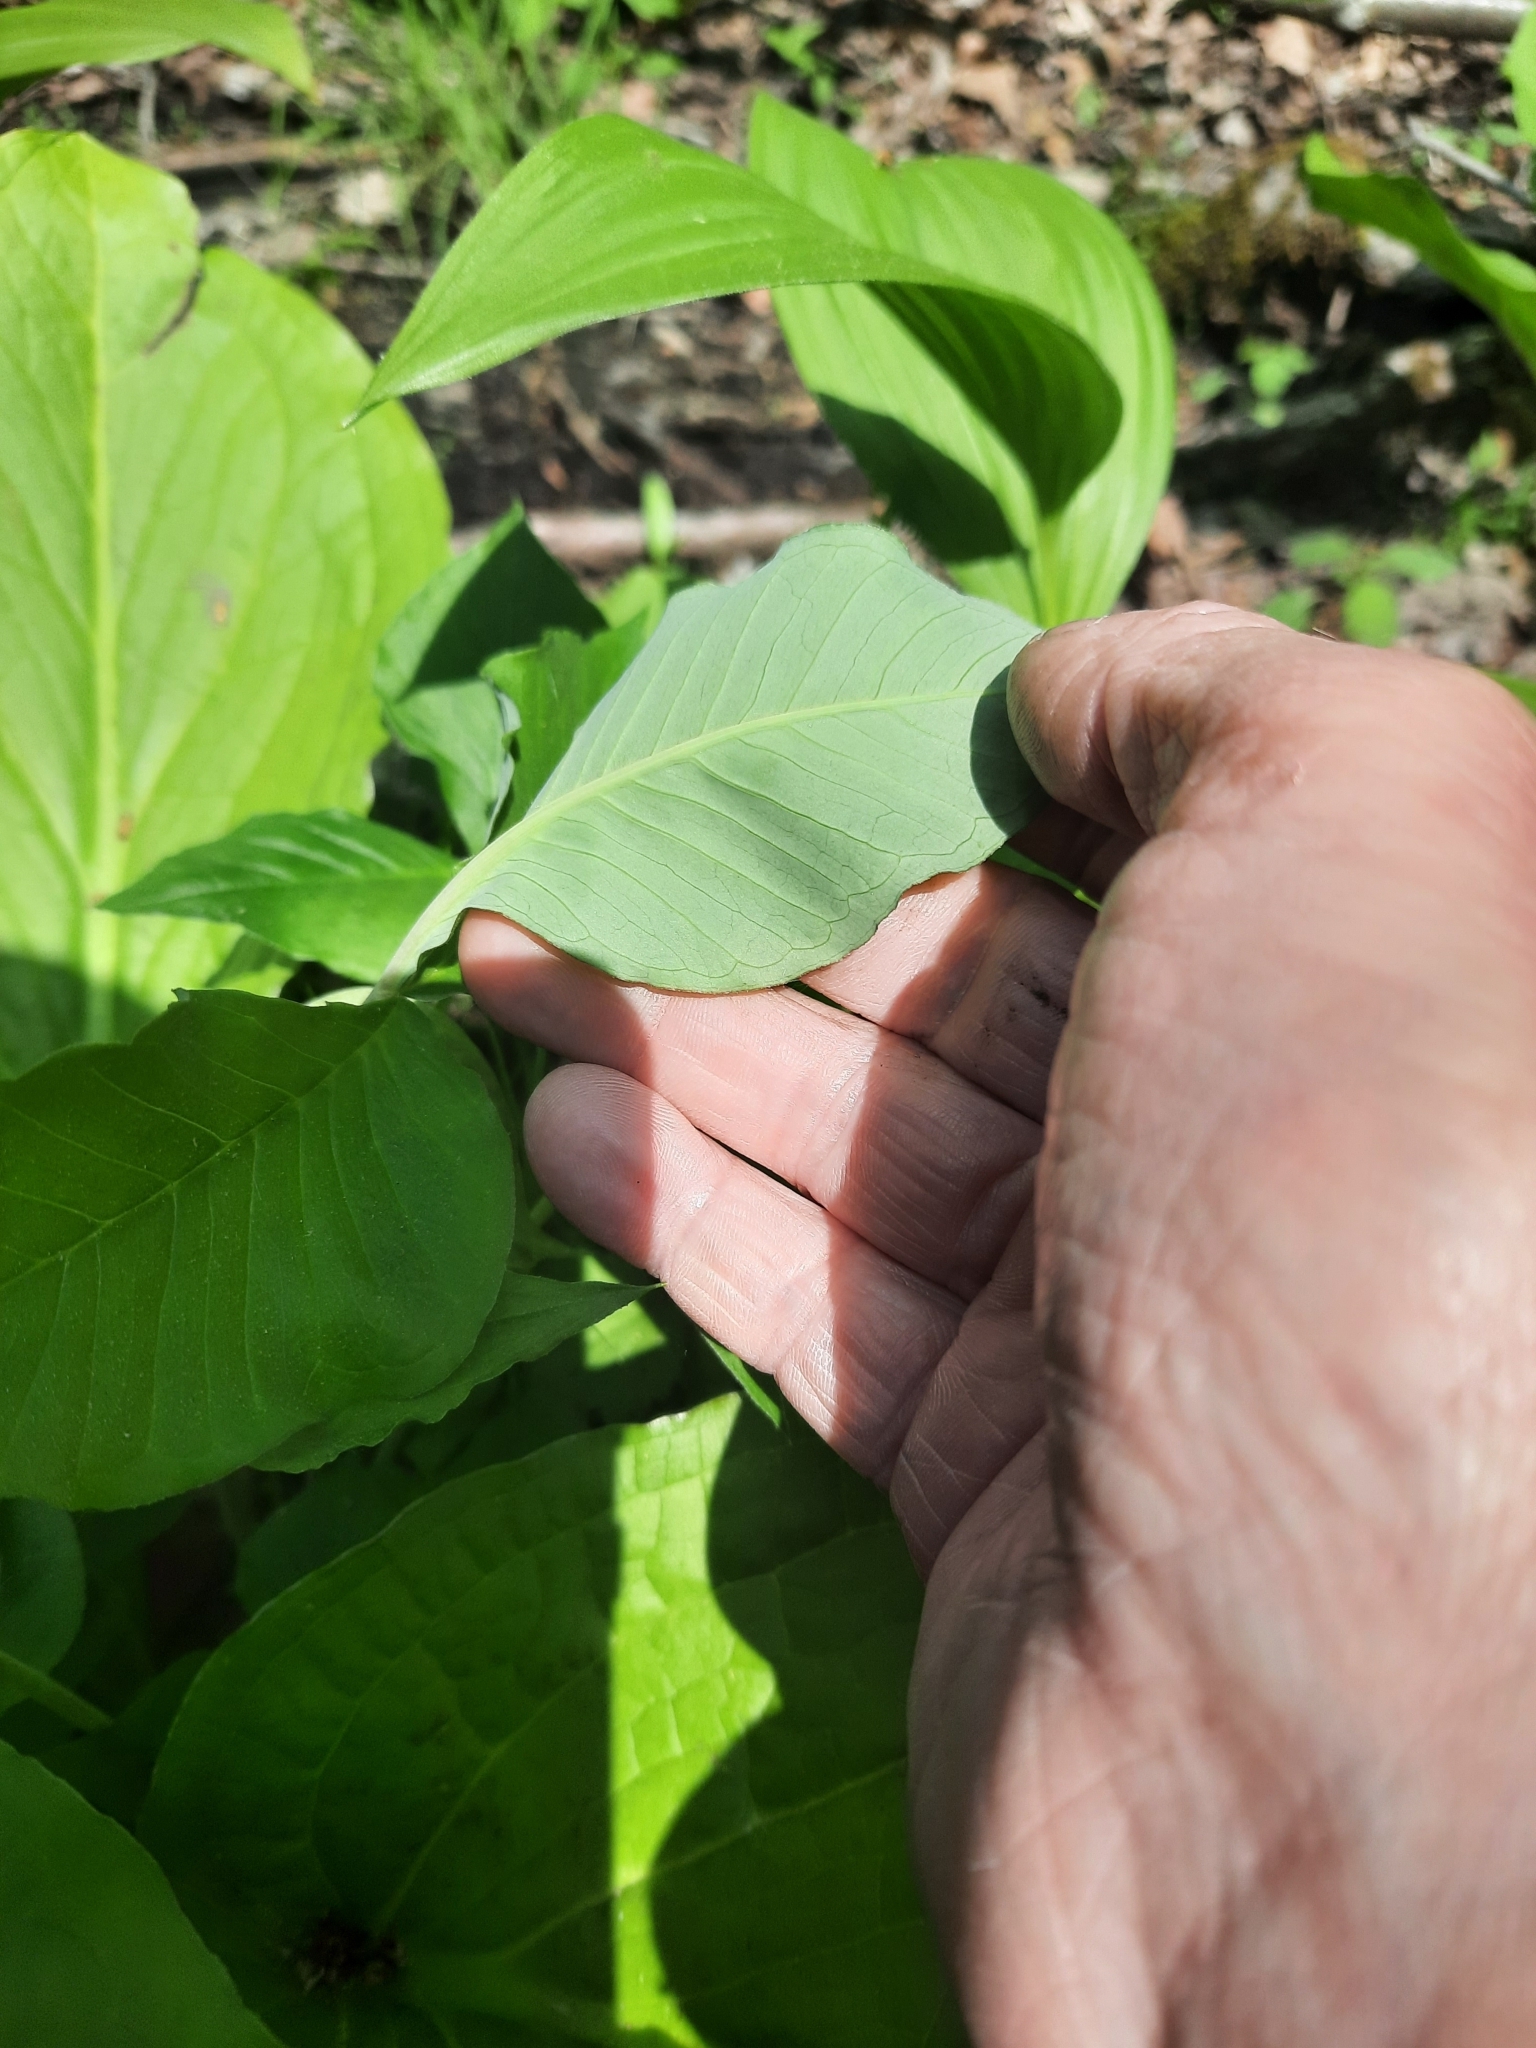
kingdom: Plantae
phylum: Tracheophyta
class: Liliopsida
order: Alismatales
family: Araceae
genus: Arisaema
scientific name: Arisaema triphyllum
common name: Jack-in-the-pulpit
